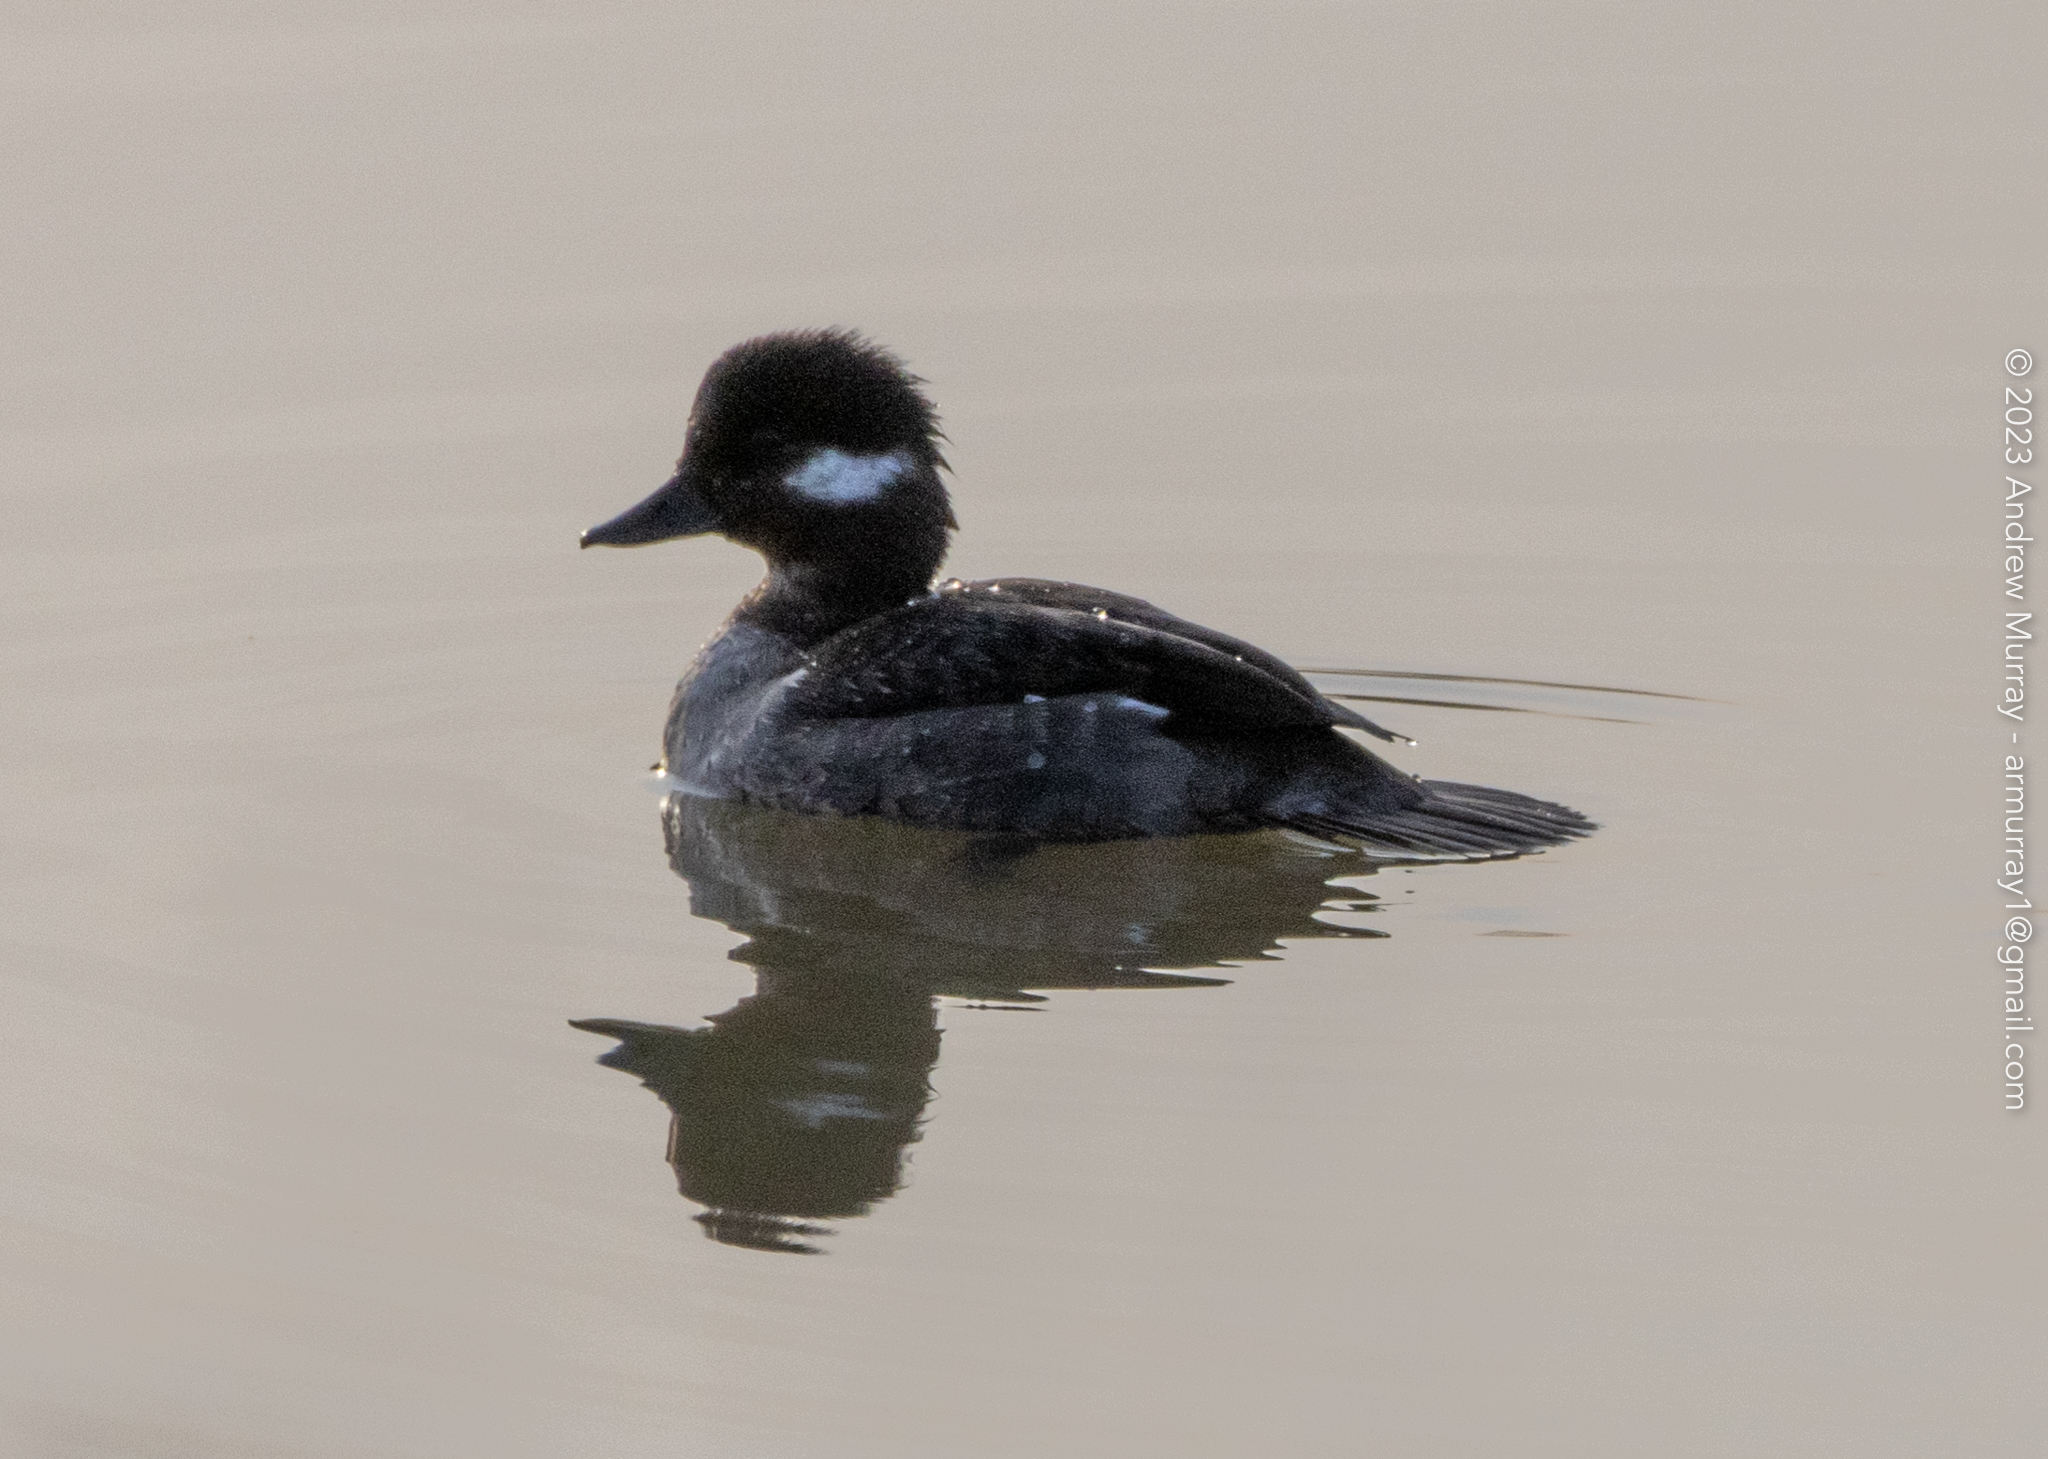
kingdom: Animalia
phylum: Chordata
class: Aves
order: Anseriformes
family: Anatidae
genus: Bucephala
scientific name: Bucephala albeola
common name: Bufflehead
